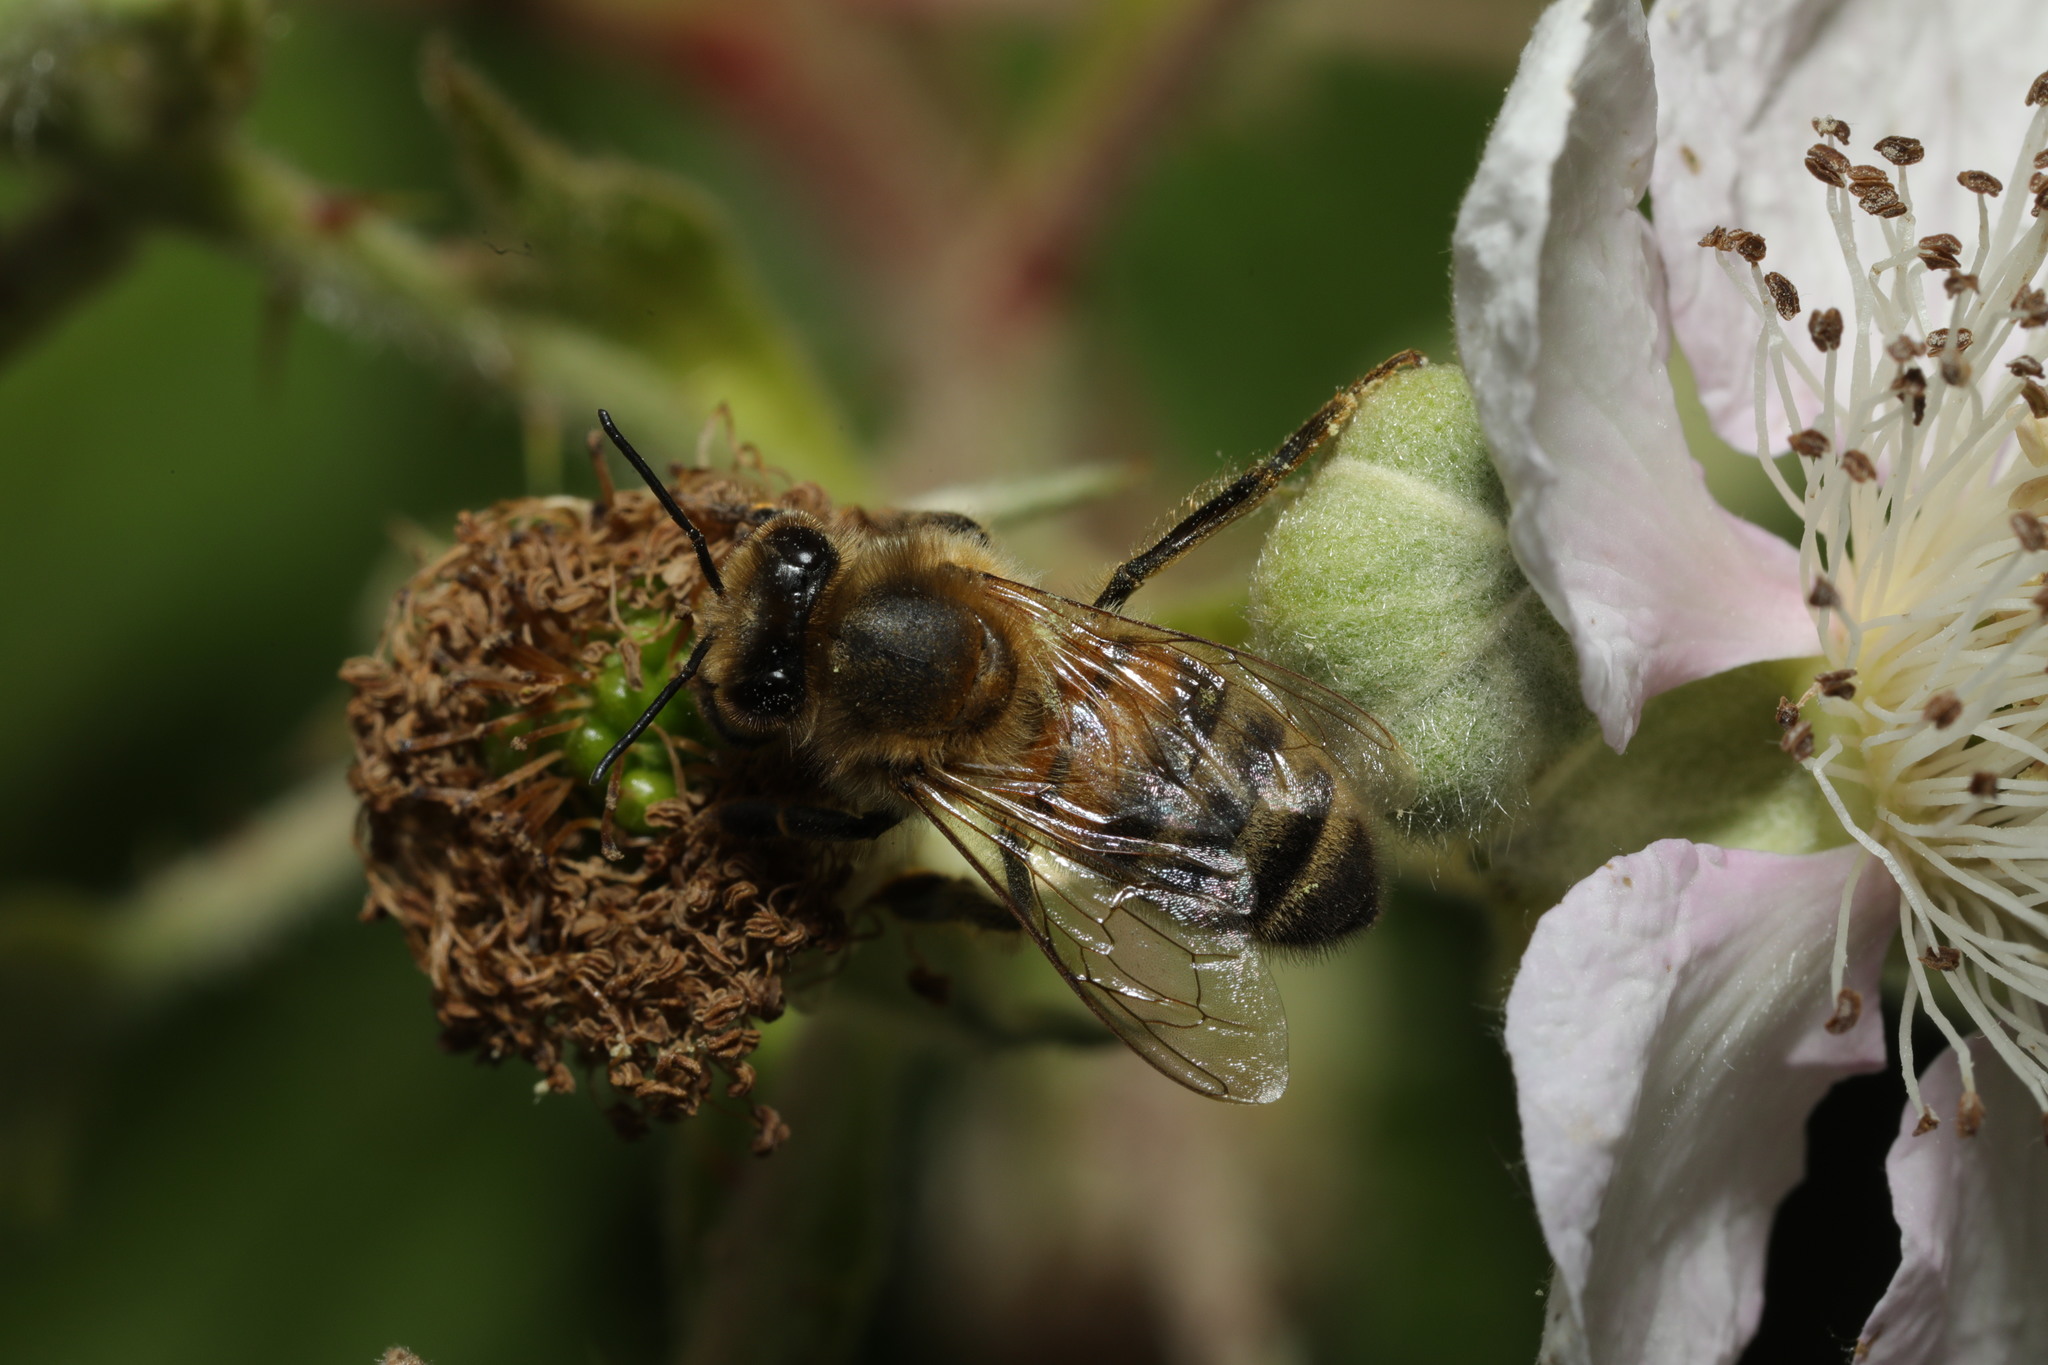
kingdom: Animalia
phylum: Arthropoda
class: Insecta
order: Hymenoptera
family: Apidae
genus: Apis
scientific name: Apis mellifera
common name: Honey bee
